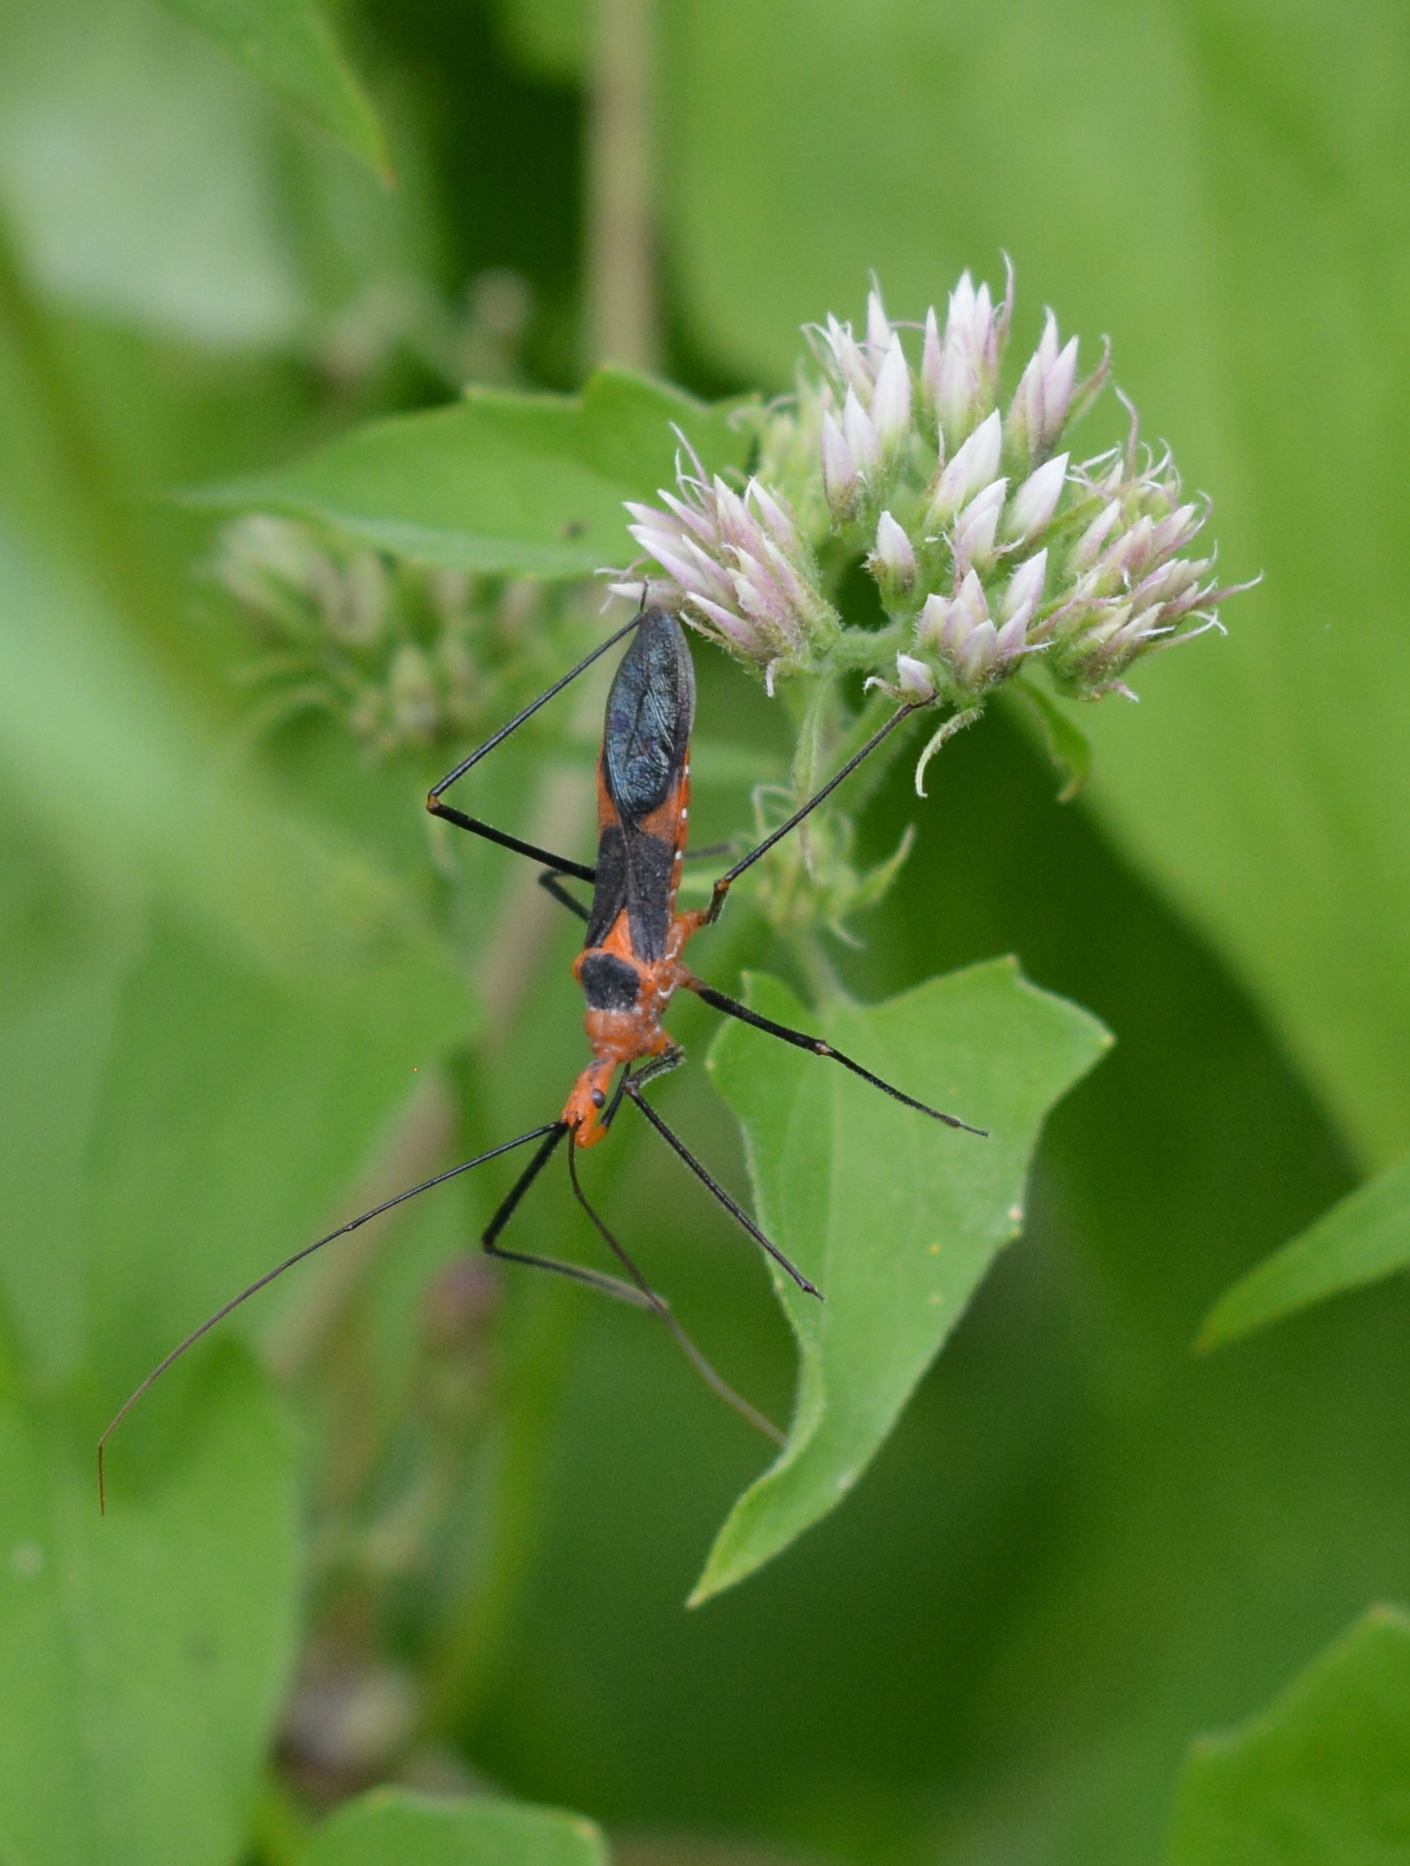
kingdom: Animalia
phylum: Arthropoda
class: Insecta
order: Hemiptera
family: Reduviidae
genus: Zelus
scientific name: Zelus longipes
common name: Milkweed assassin bug
